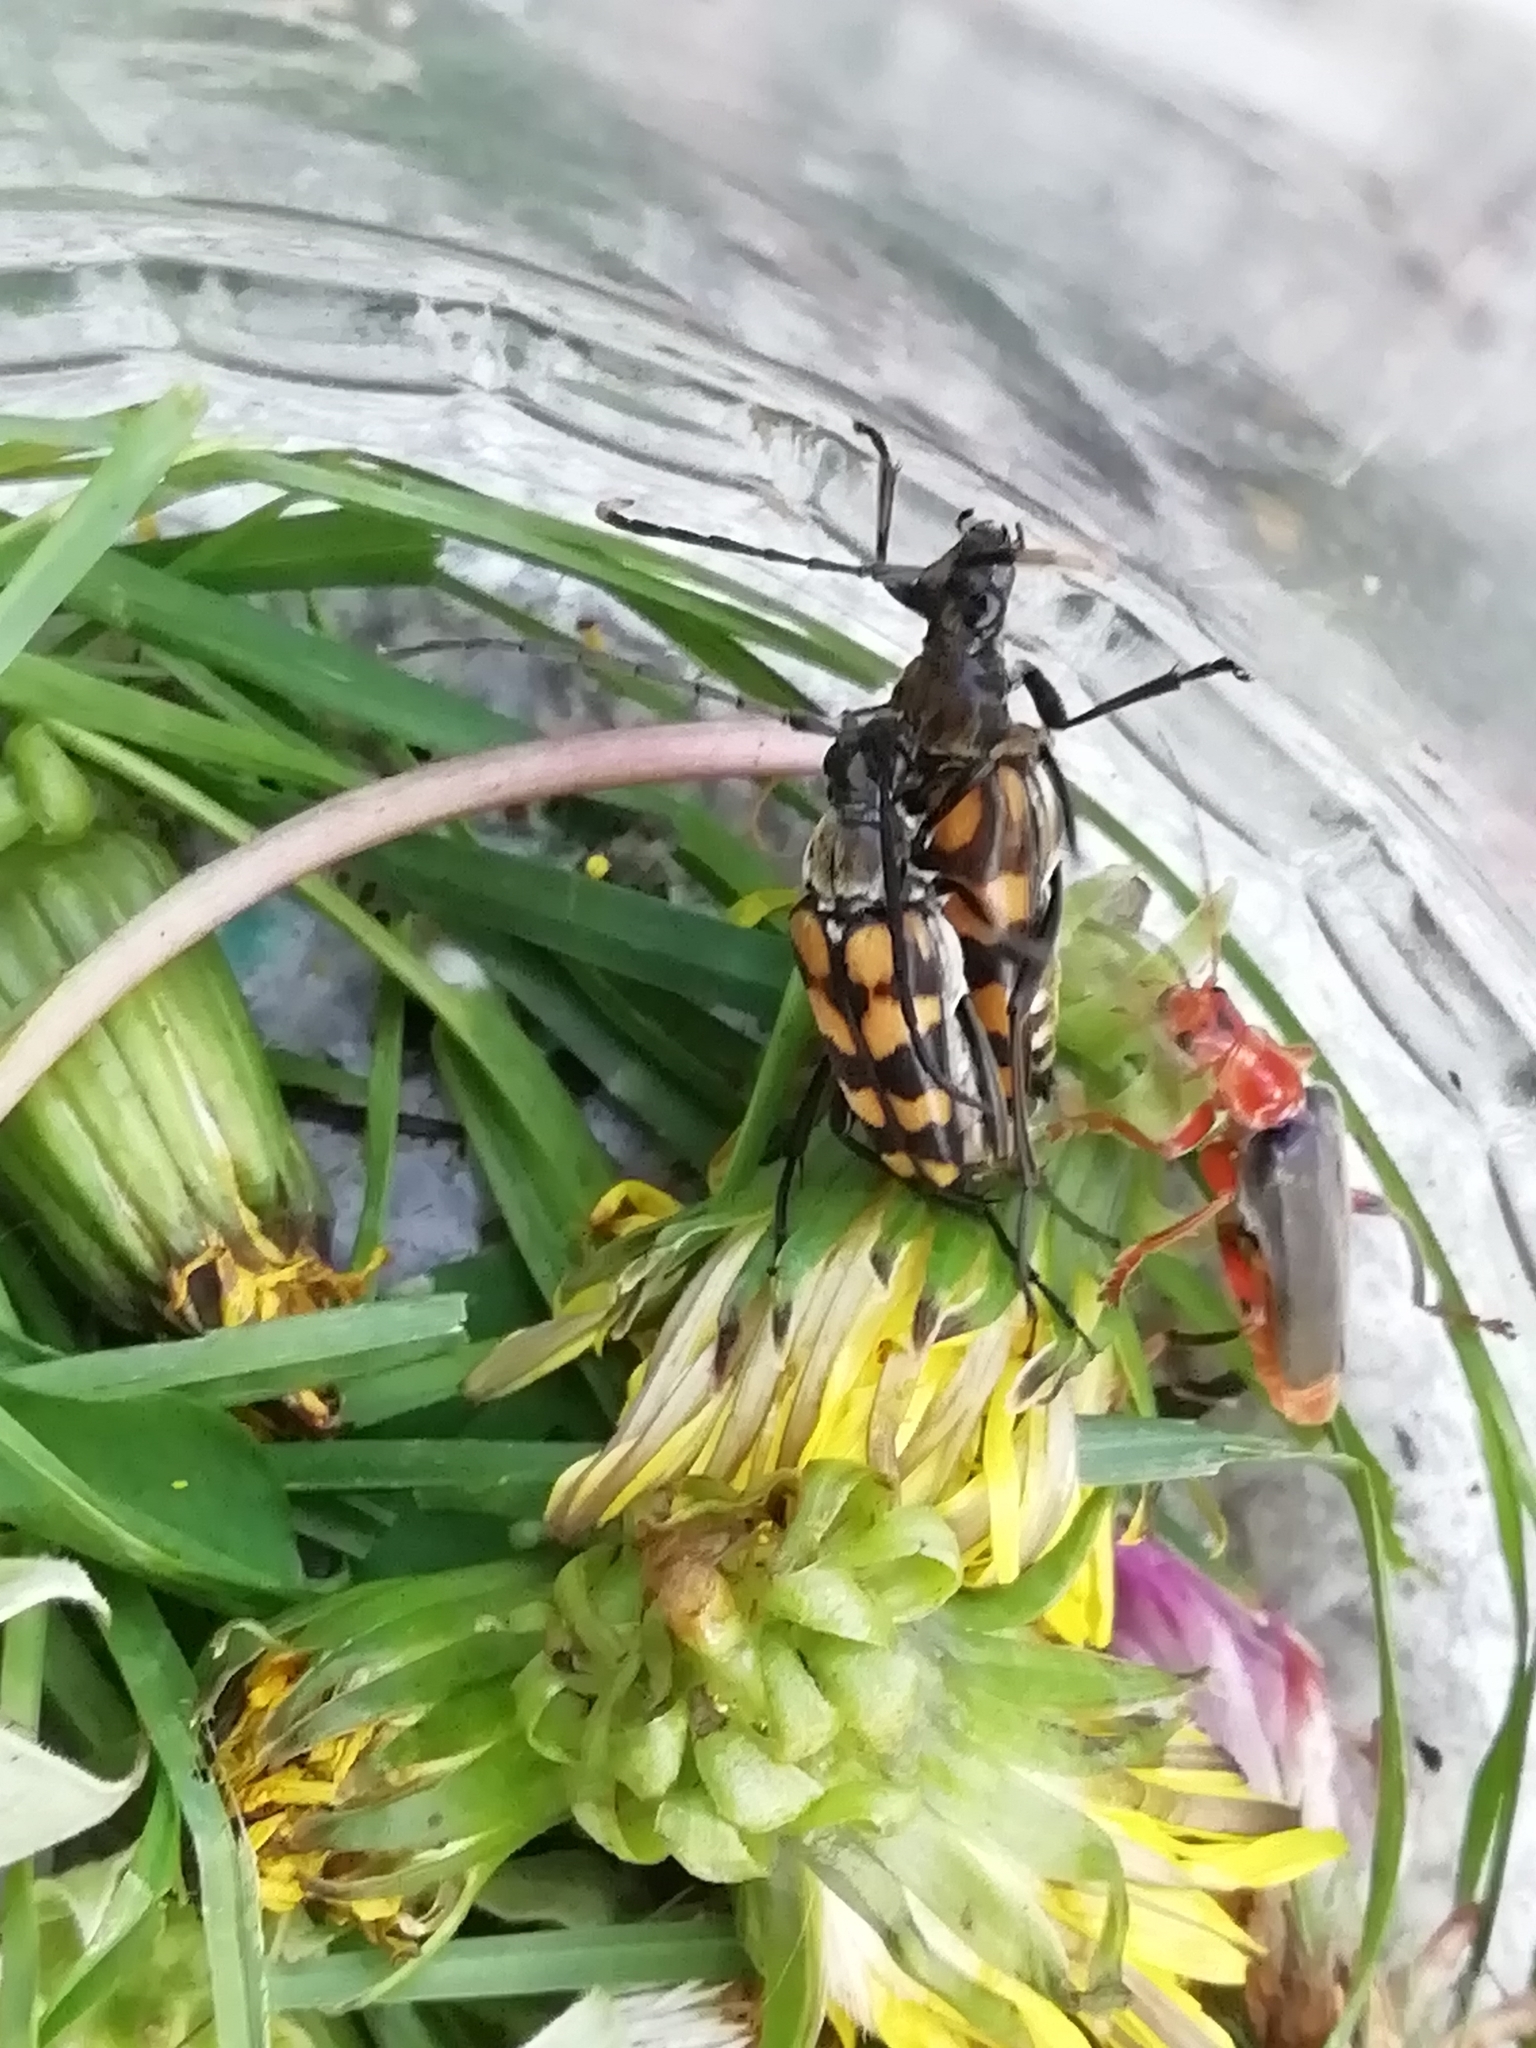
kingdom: Animalia
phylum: Arthropoda
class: Insecta
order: Coleoptera
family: Cerambycidae
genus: Leptura
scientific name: Leptura quadrifasciata
